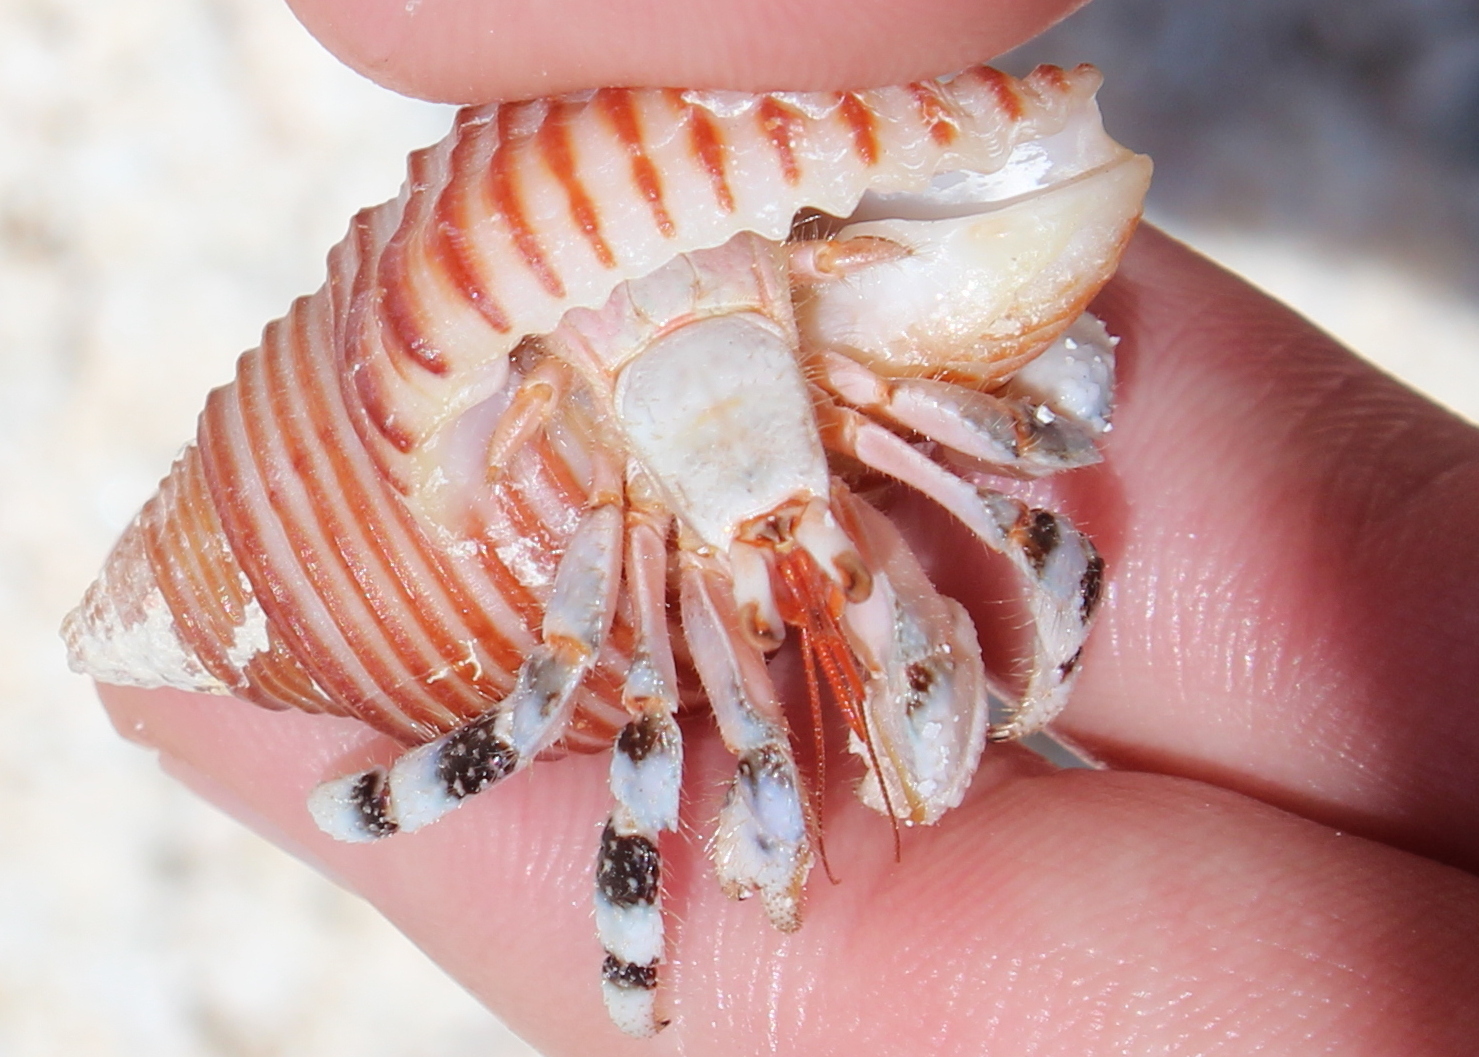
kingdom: Animalia
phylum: Arthropoda
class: Malacostraca
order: Decapoda
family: Coenobitidae
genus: Coenobita
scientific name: Coenobita carnescens
